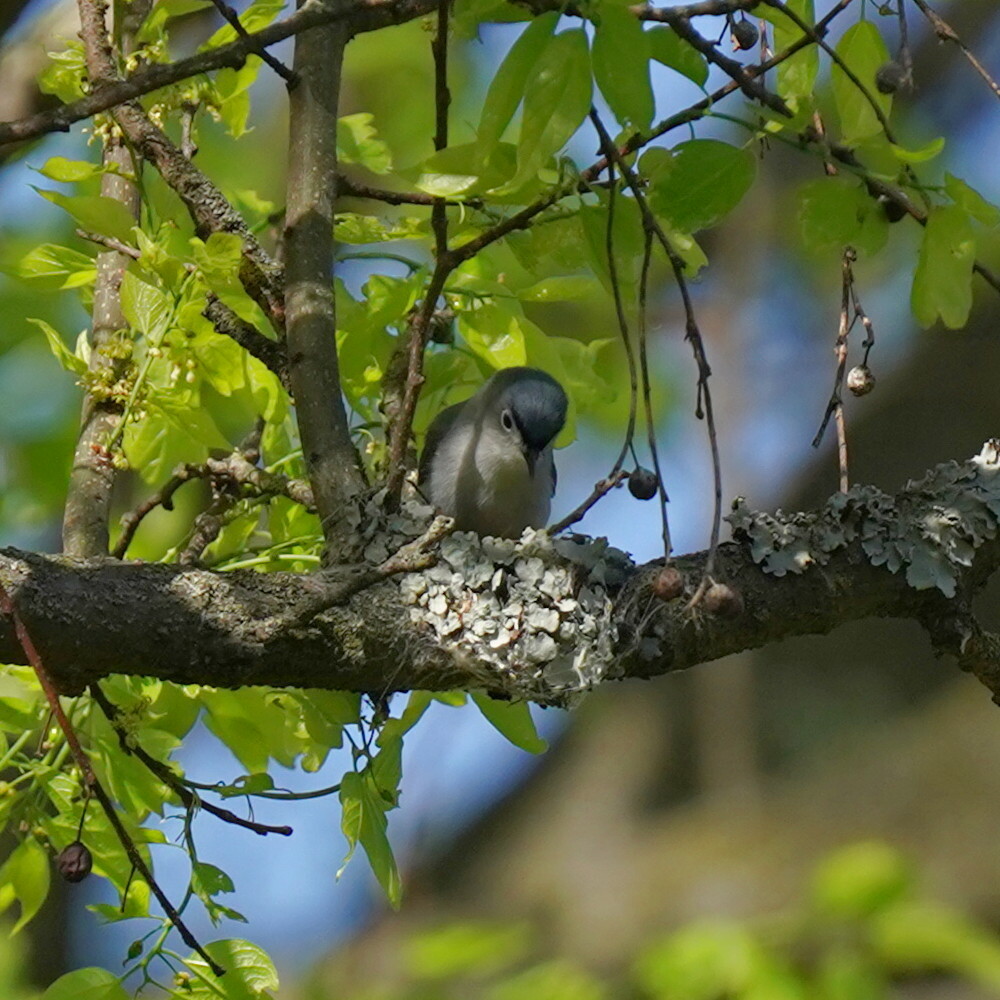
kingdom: Animalia
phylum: Chordata
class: Aves
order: Passeriformes
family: Polioptilidae
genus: Polioptila
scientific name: Polioptila caerulea
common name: Blue-gray gnatcatcher
